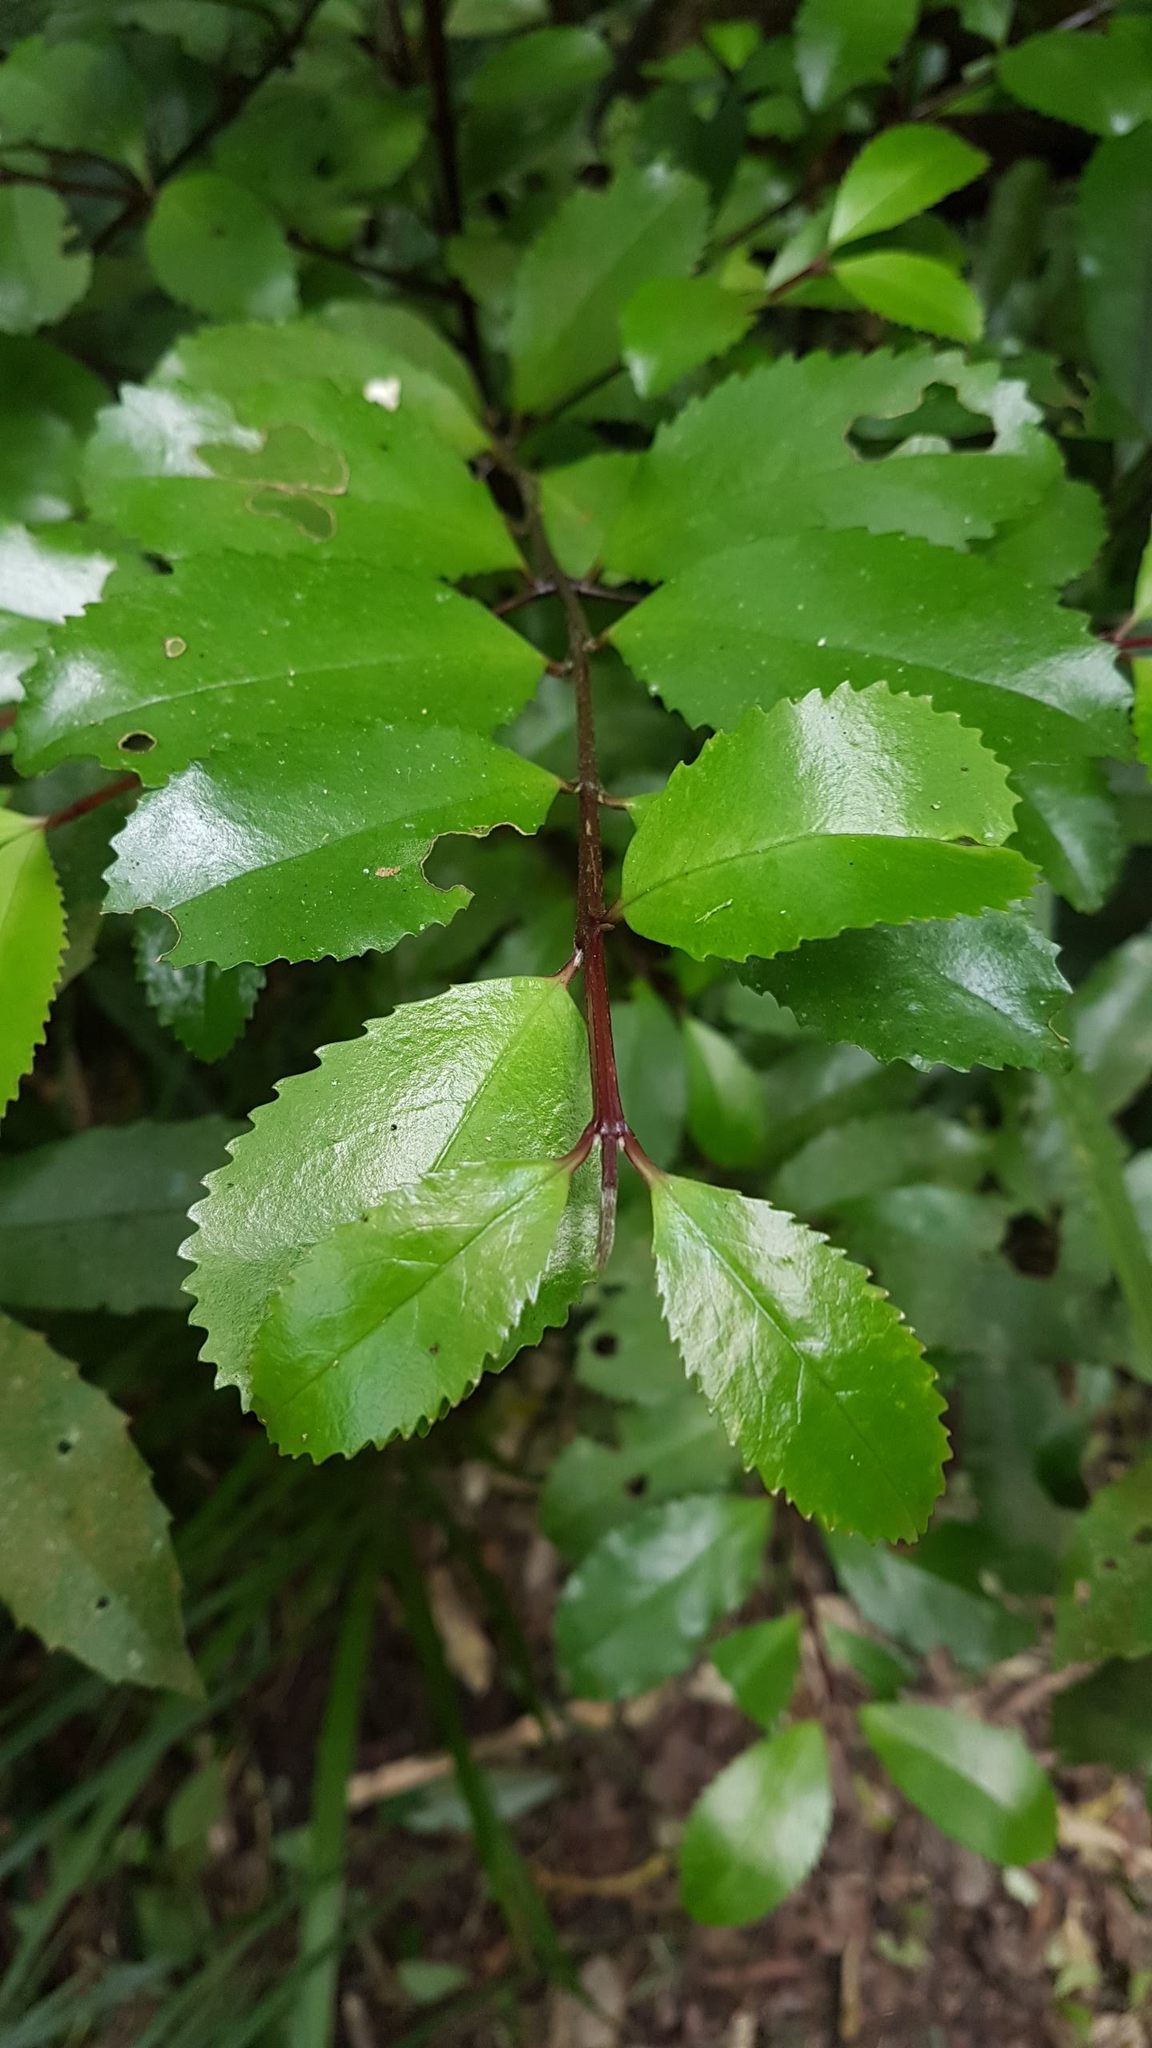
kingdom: Plantae
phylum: Tracheophyta
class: Magnoliopsida
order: Laurales
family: Atherospermataceae
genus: Laurelia
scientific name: Laurelia novae-zelandiae
